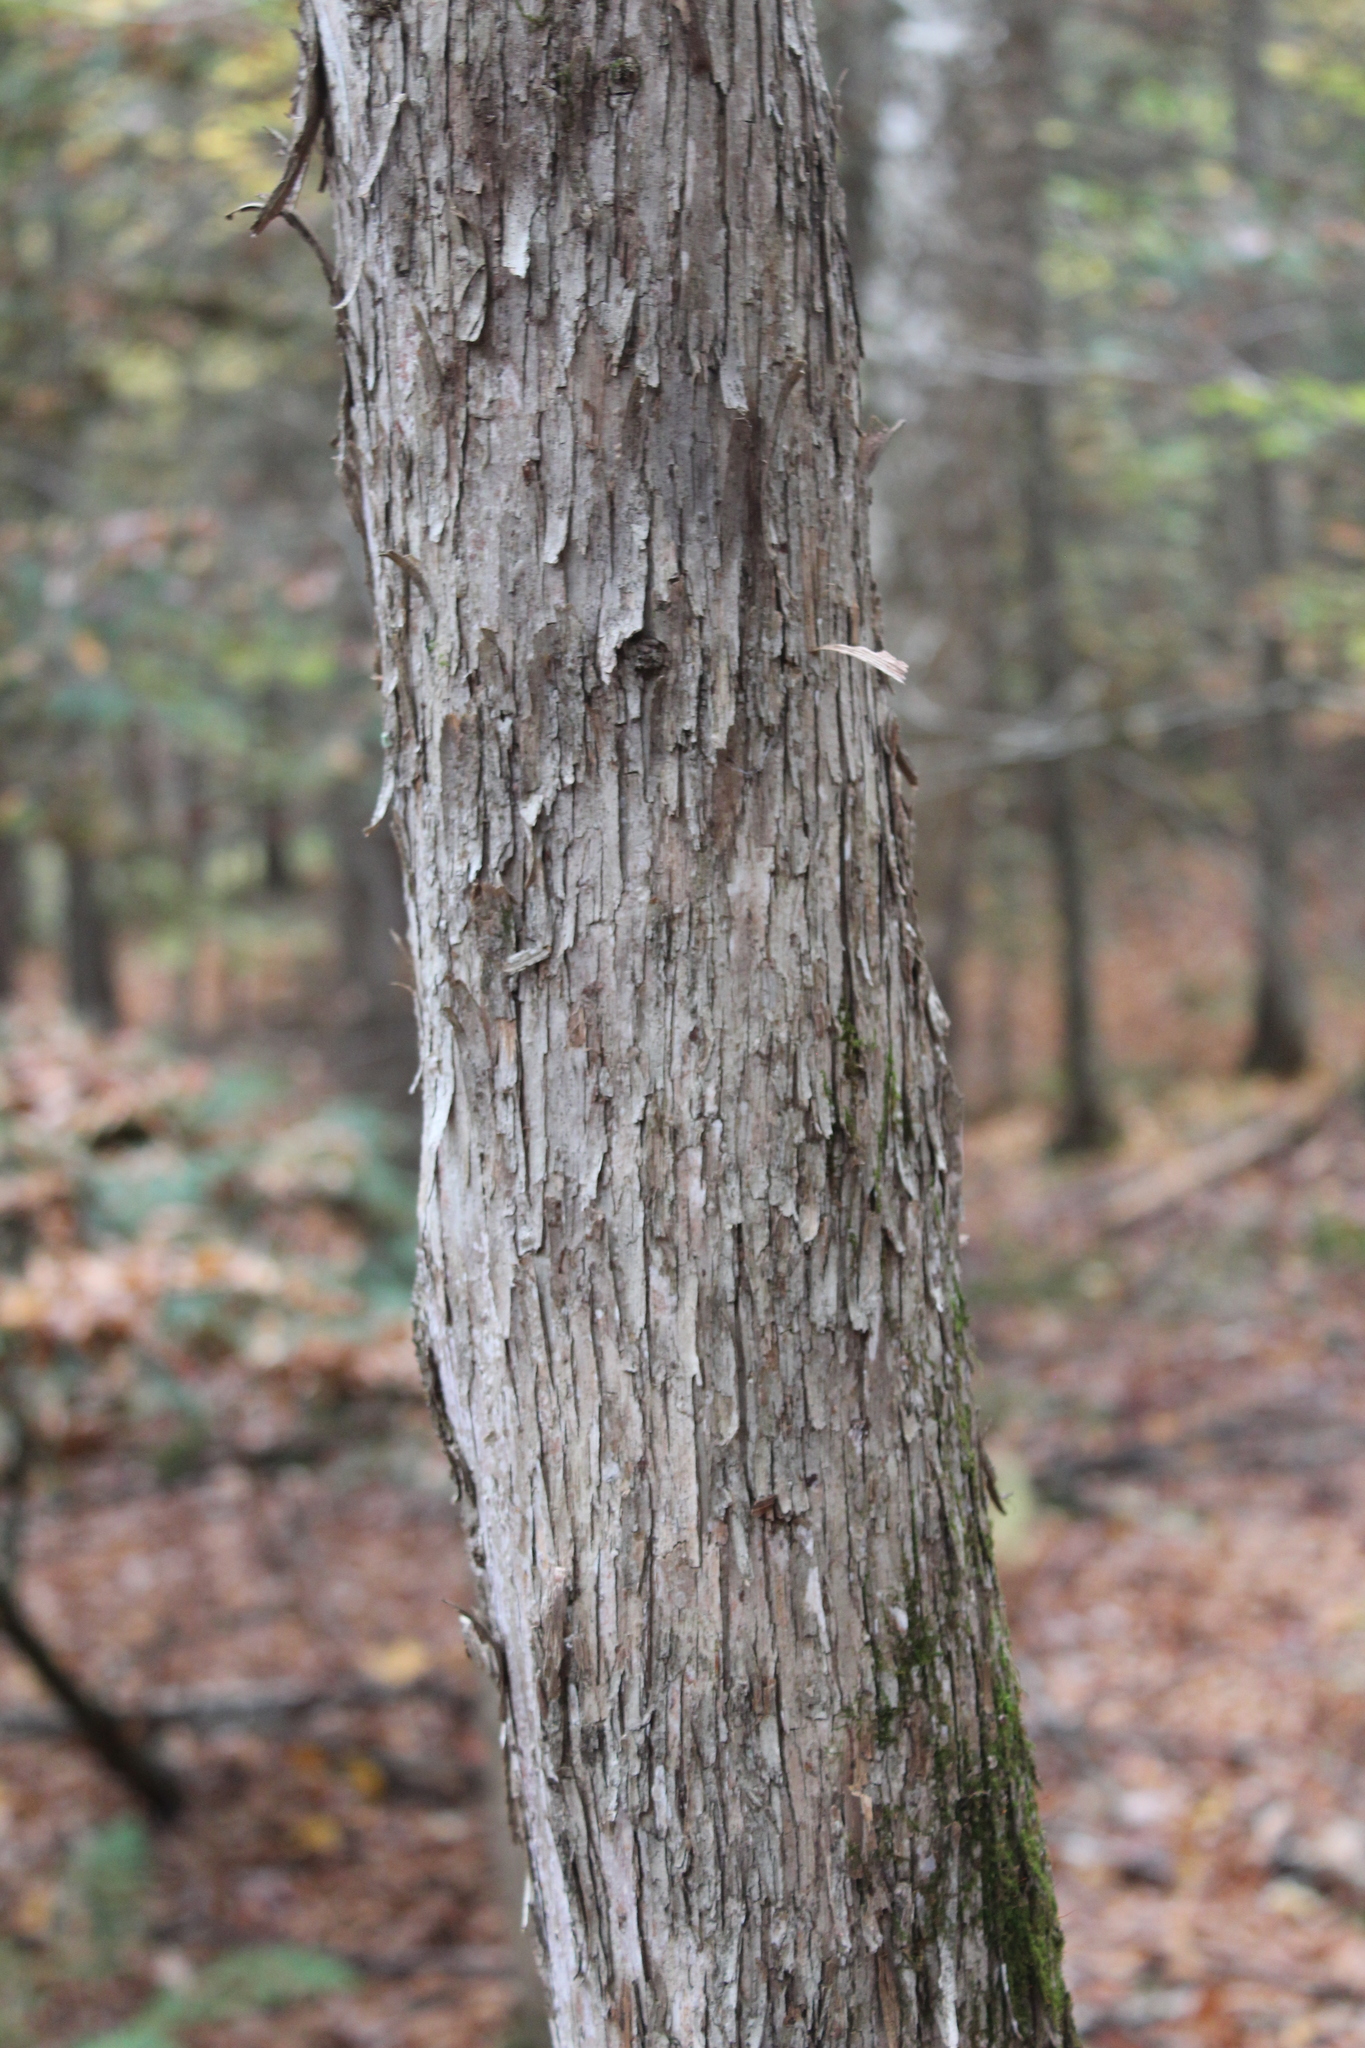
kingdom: Plantae
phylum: Tracheophyta
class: Magnoliopsida
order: Fagales
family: Betulaceae
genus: Ostrya
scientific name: Ostrya virginiana
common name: Ironwood
